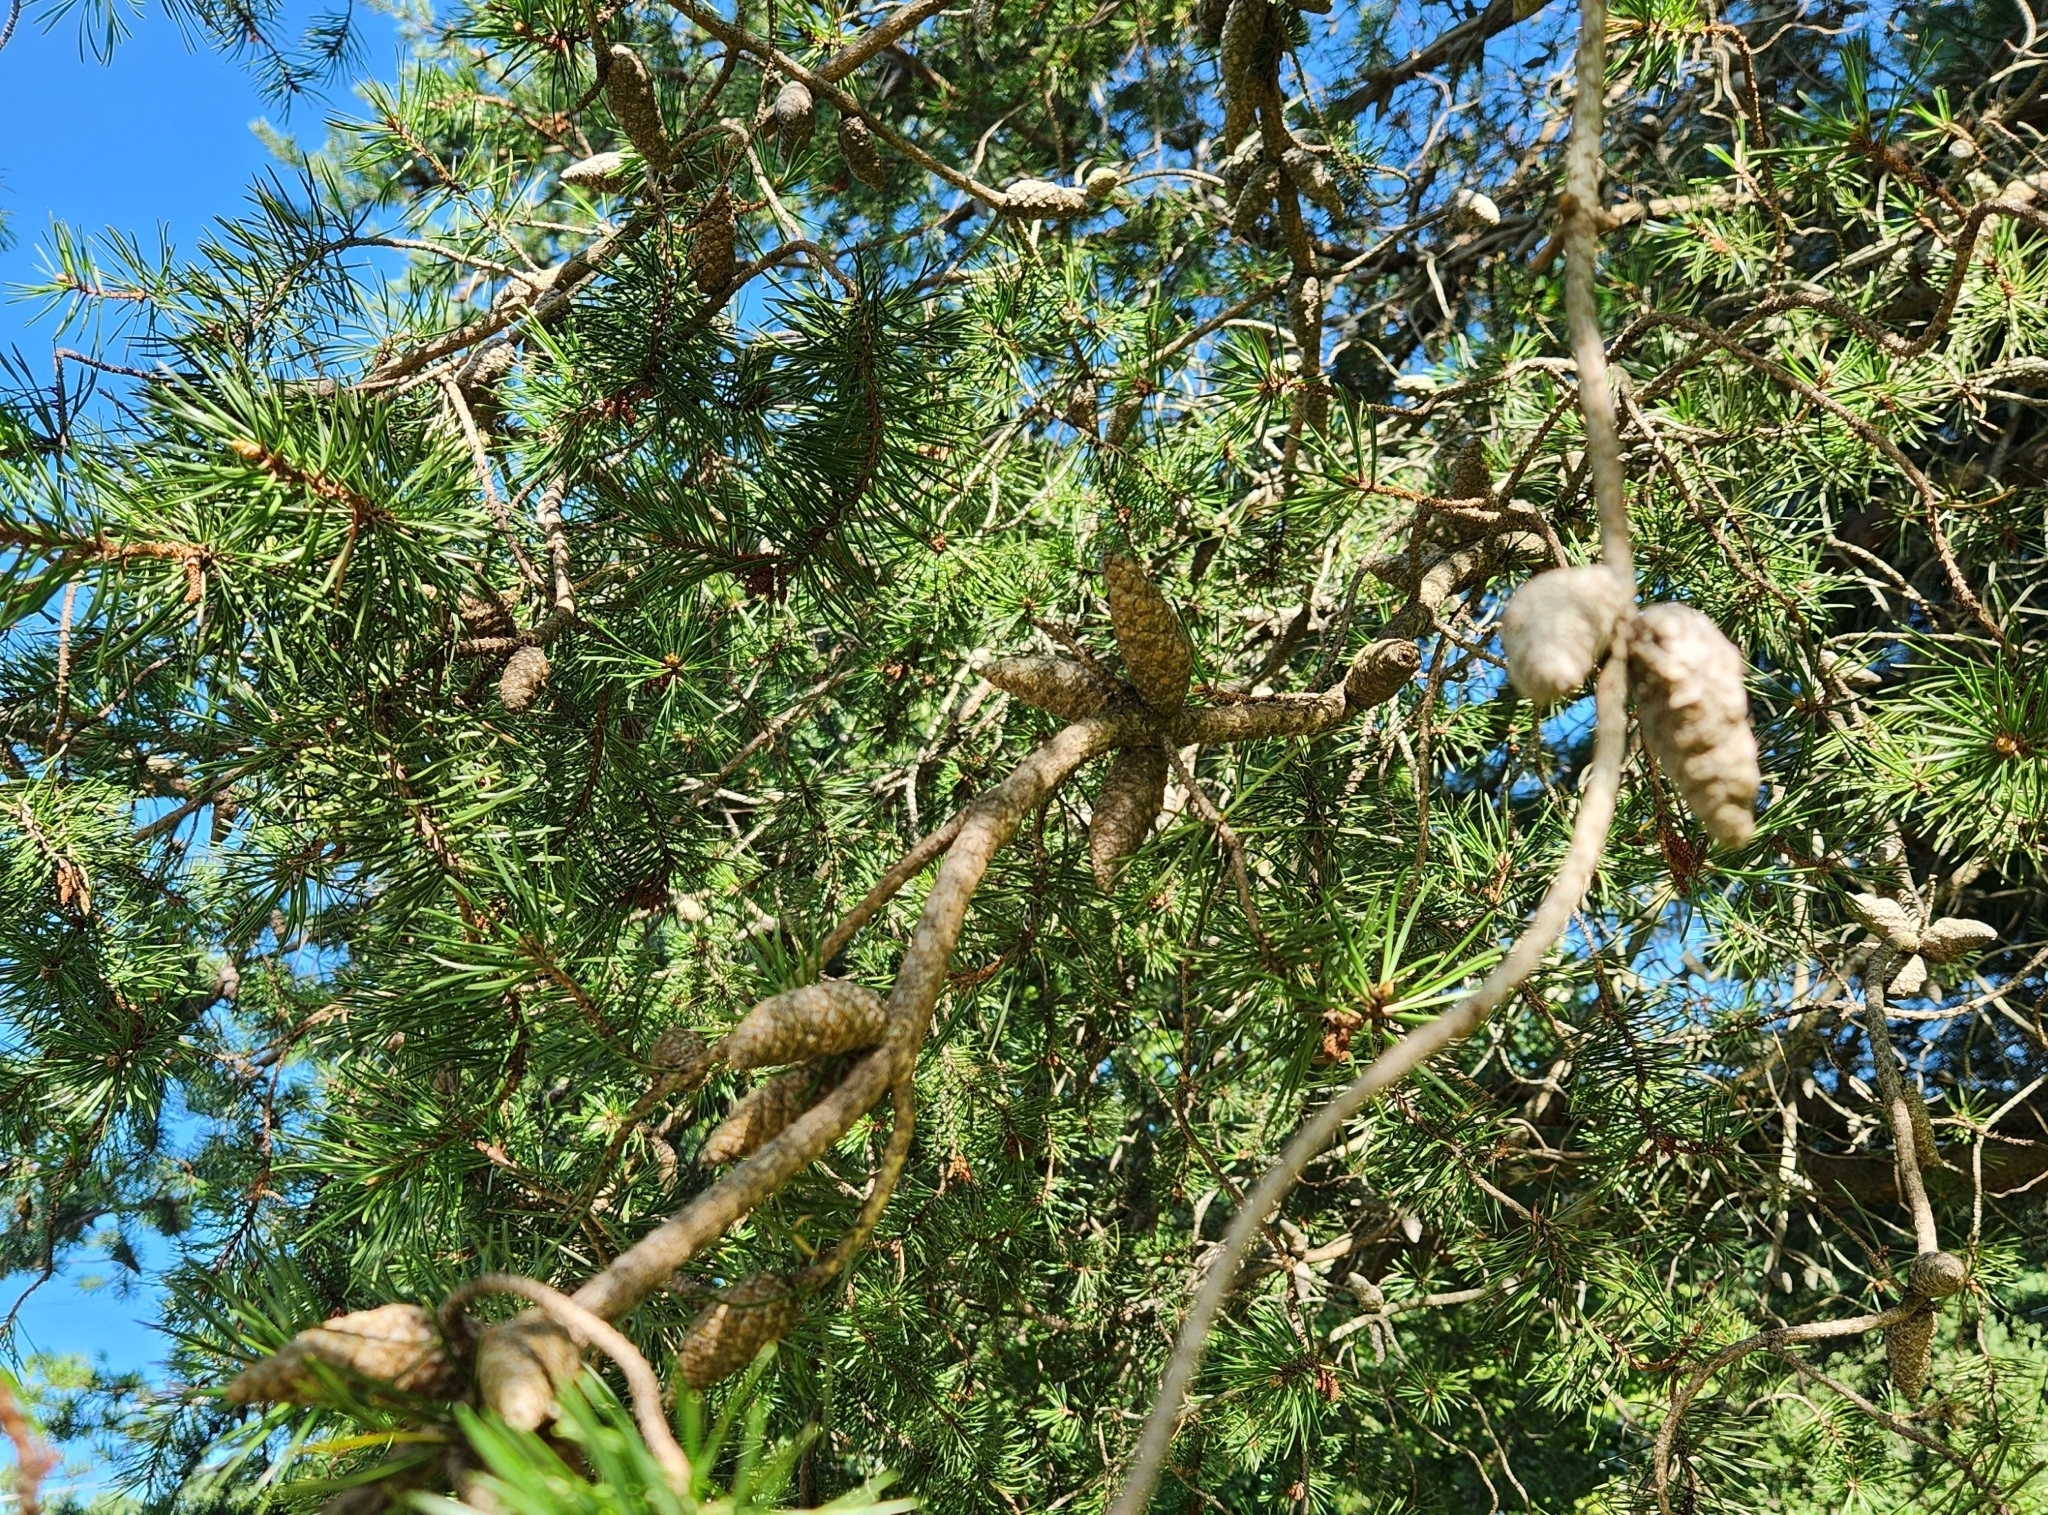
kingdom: Plantae
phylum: Tracheophyta
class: Pinopsida
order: Pinales
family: Pinaceae
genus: Pinus
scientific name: Pinus banksiana
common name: Jack pine
